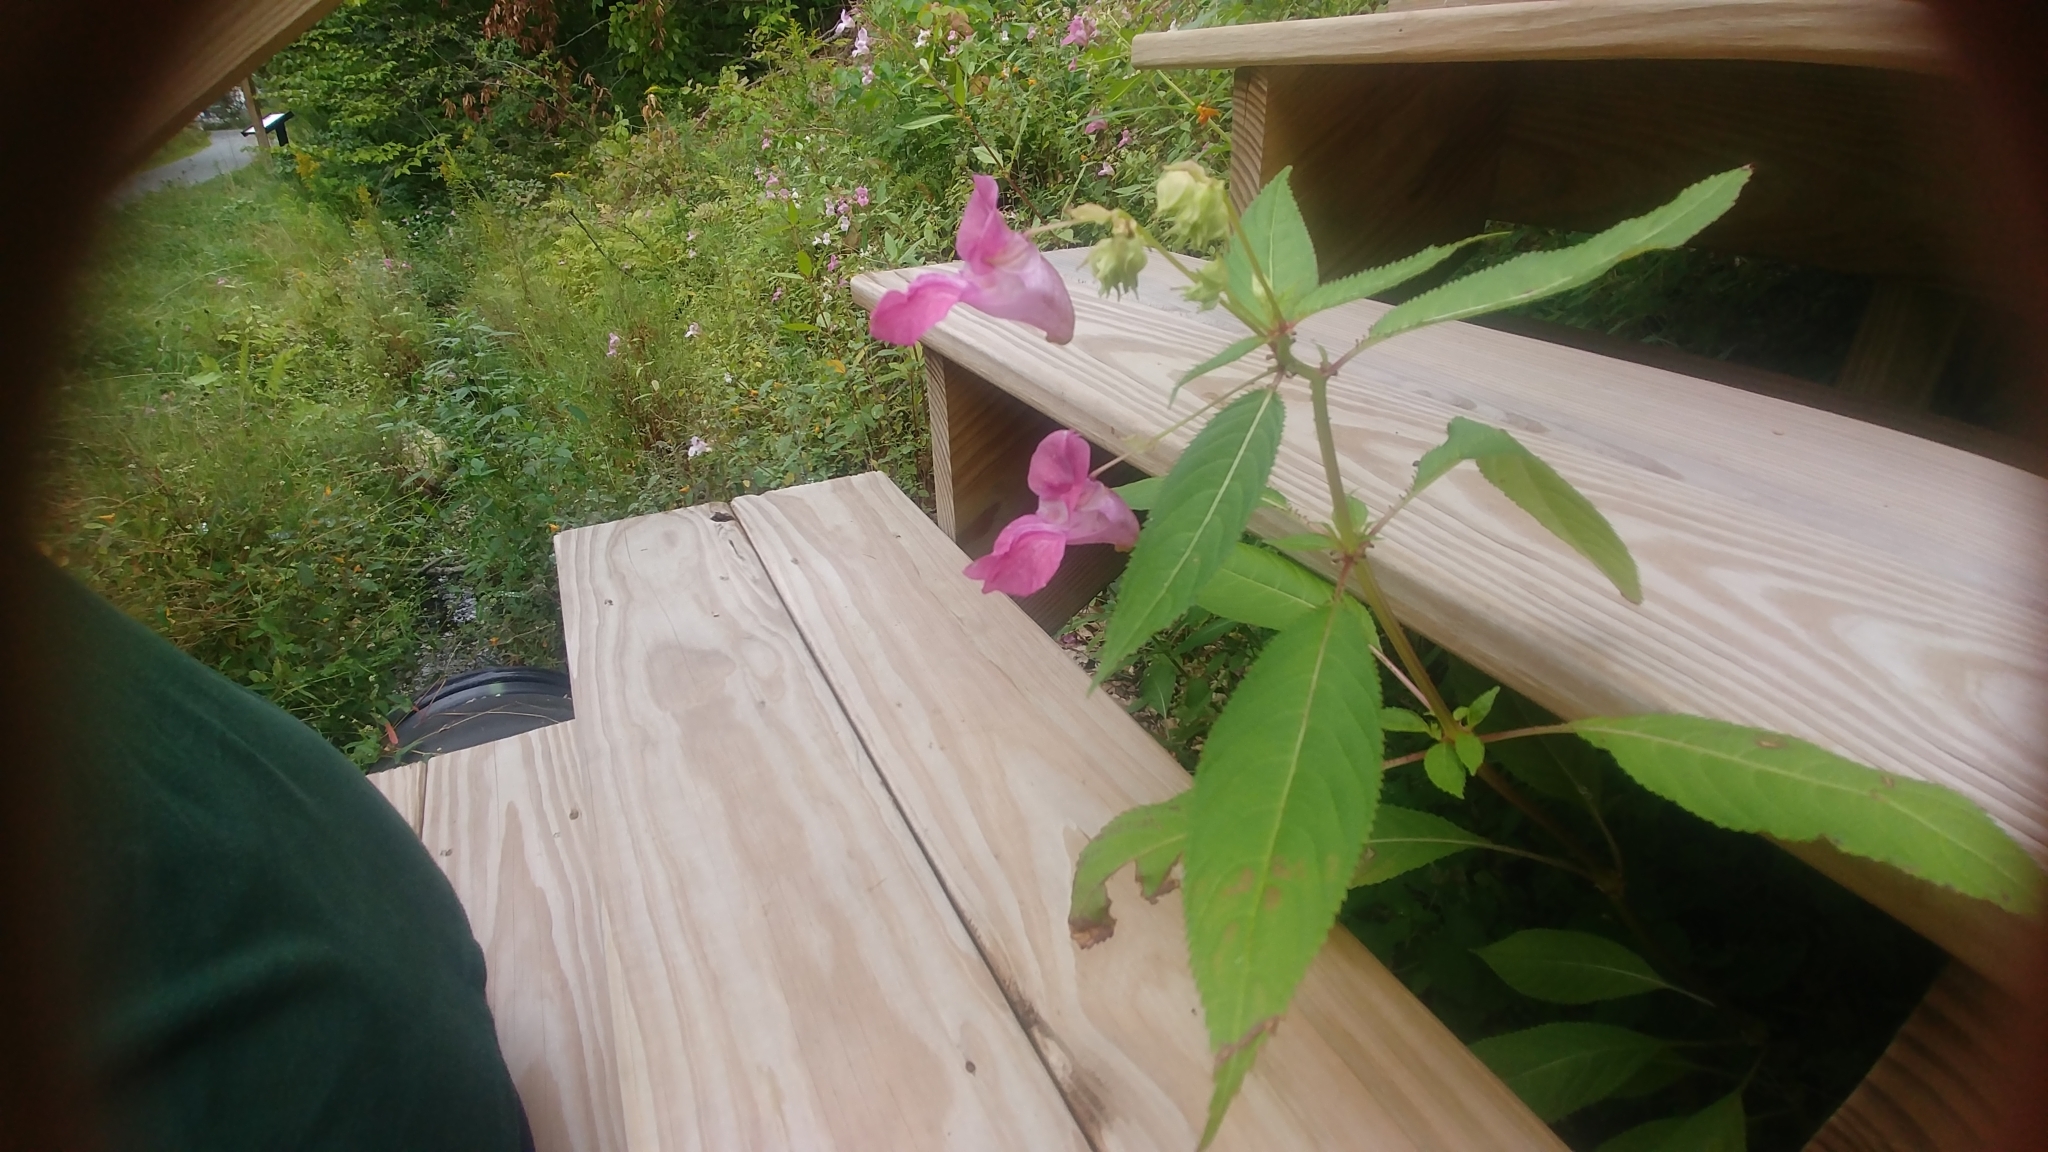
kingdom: Plantae
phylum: Tracheophyta
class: Magnoliopsida
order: Ericales
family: Balsaminaceae
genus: Impatiens
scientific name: Impatiens glandulifera
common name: Himalayan balsam
